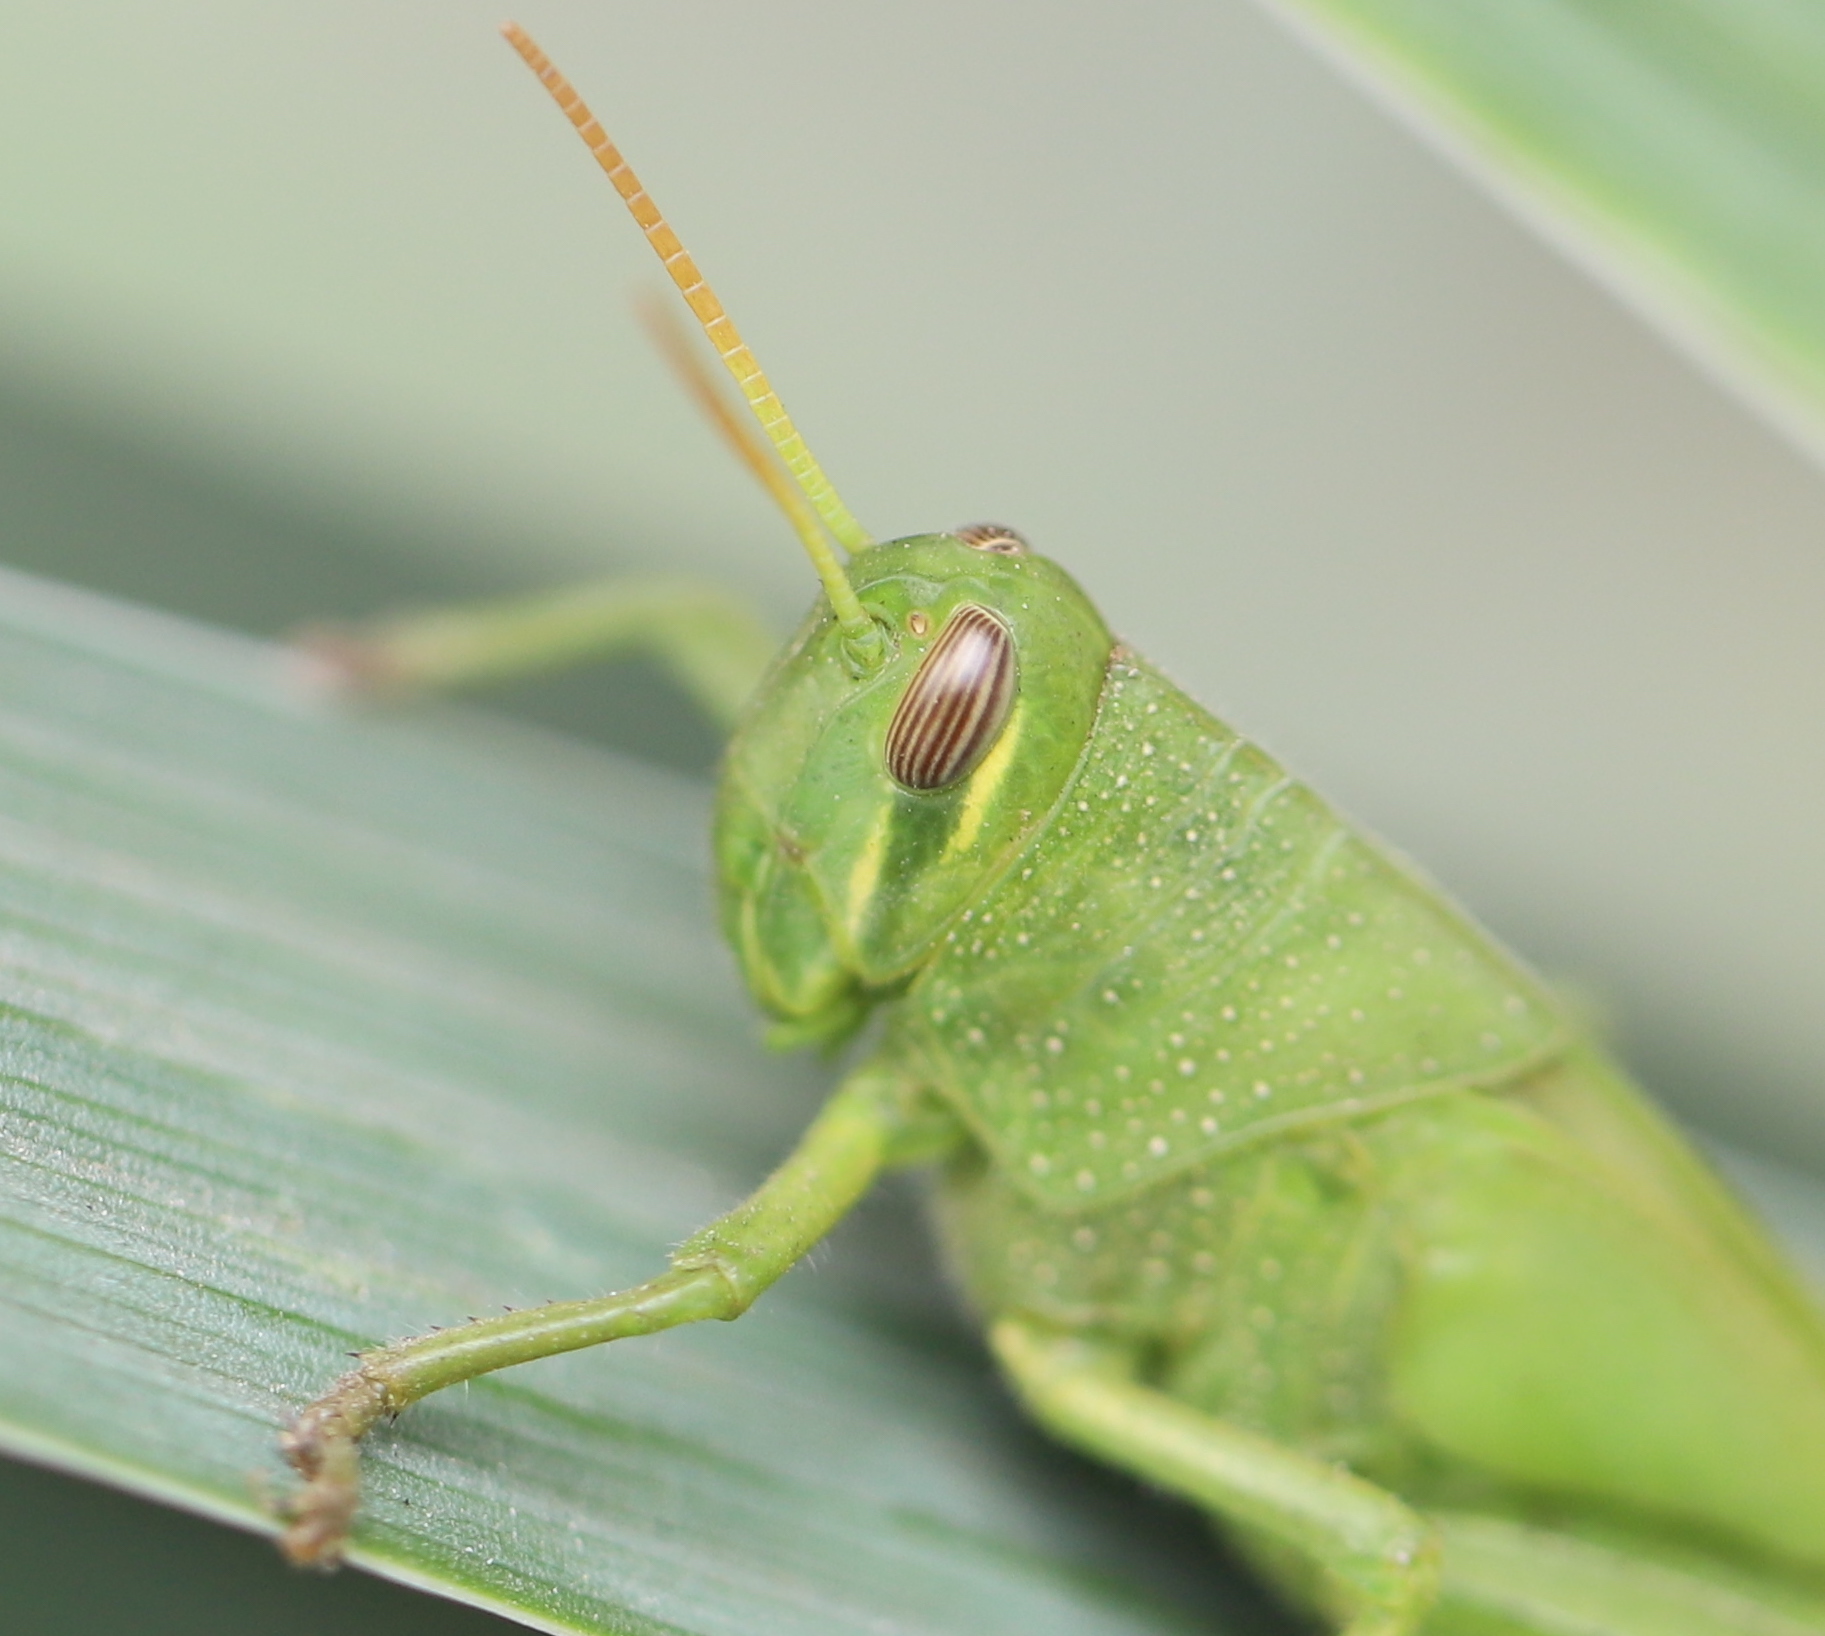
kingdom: Animalia
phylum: Arthropoda
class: Insecta
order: Orthoptera
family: Acrididae
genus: Schistocerca
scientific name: Schistocerca cancellata
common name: South american locust
